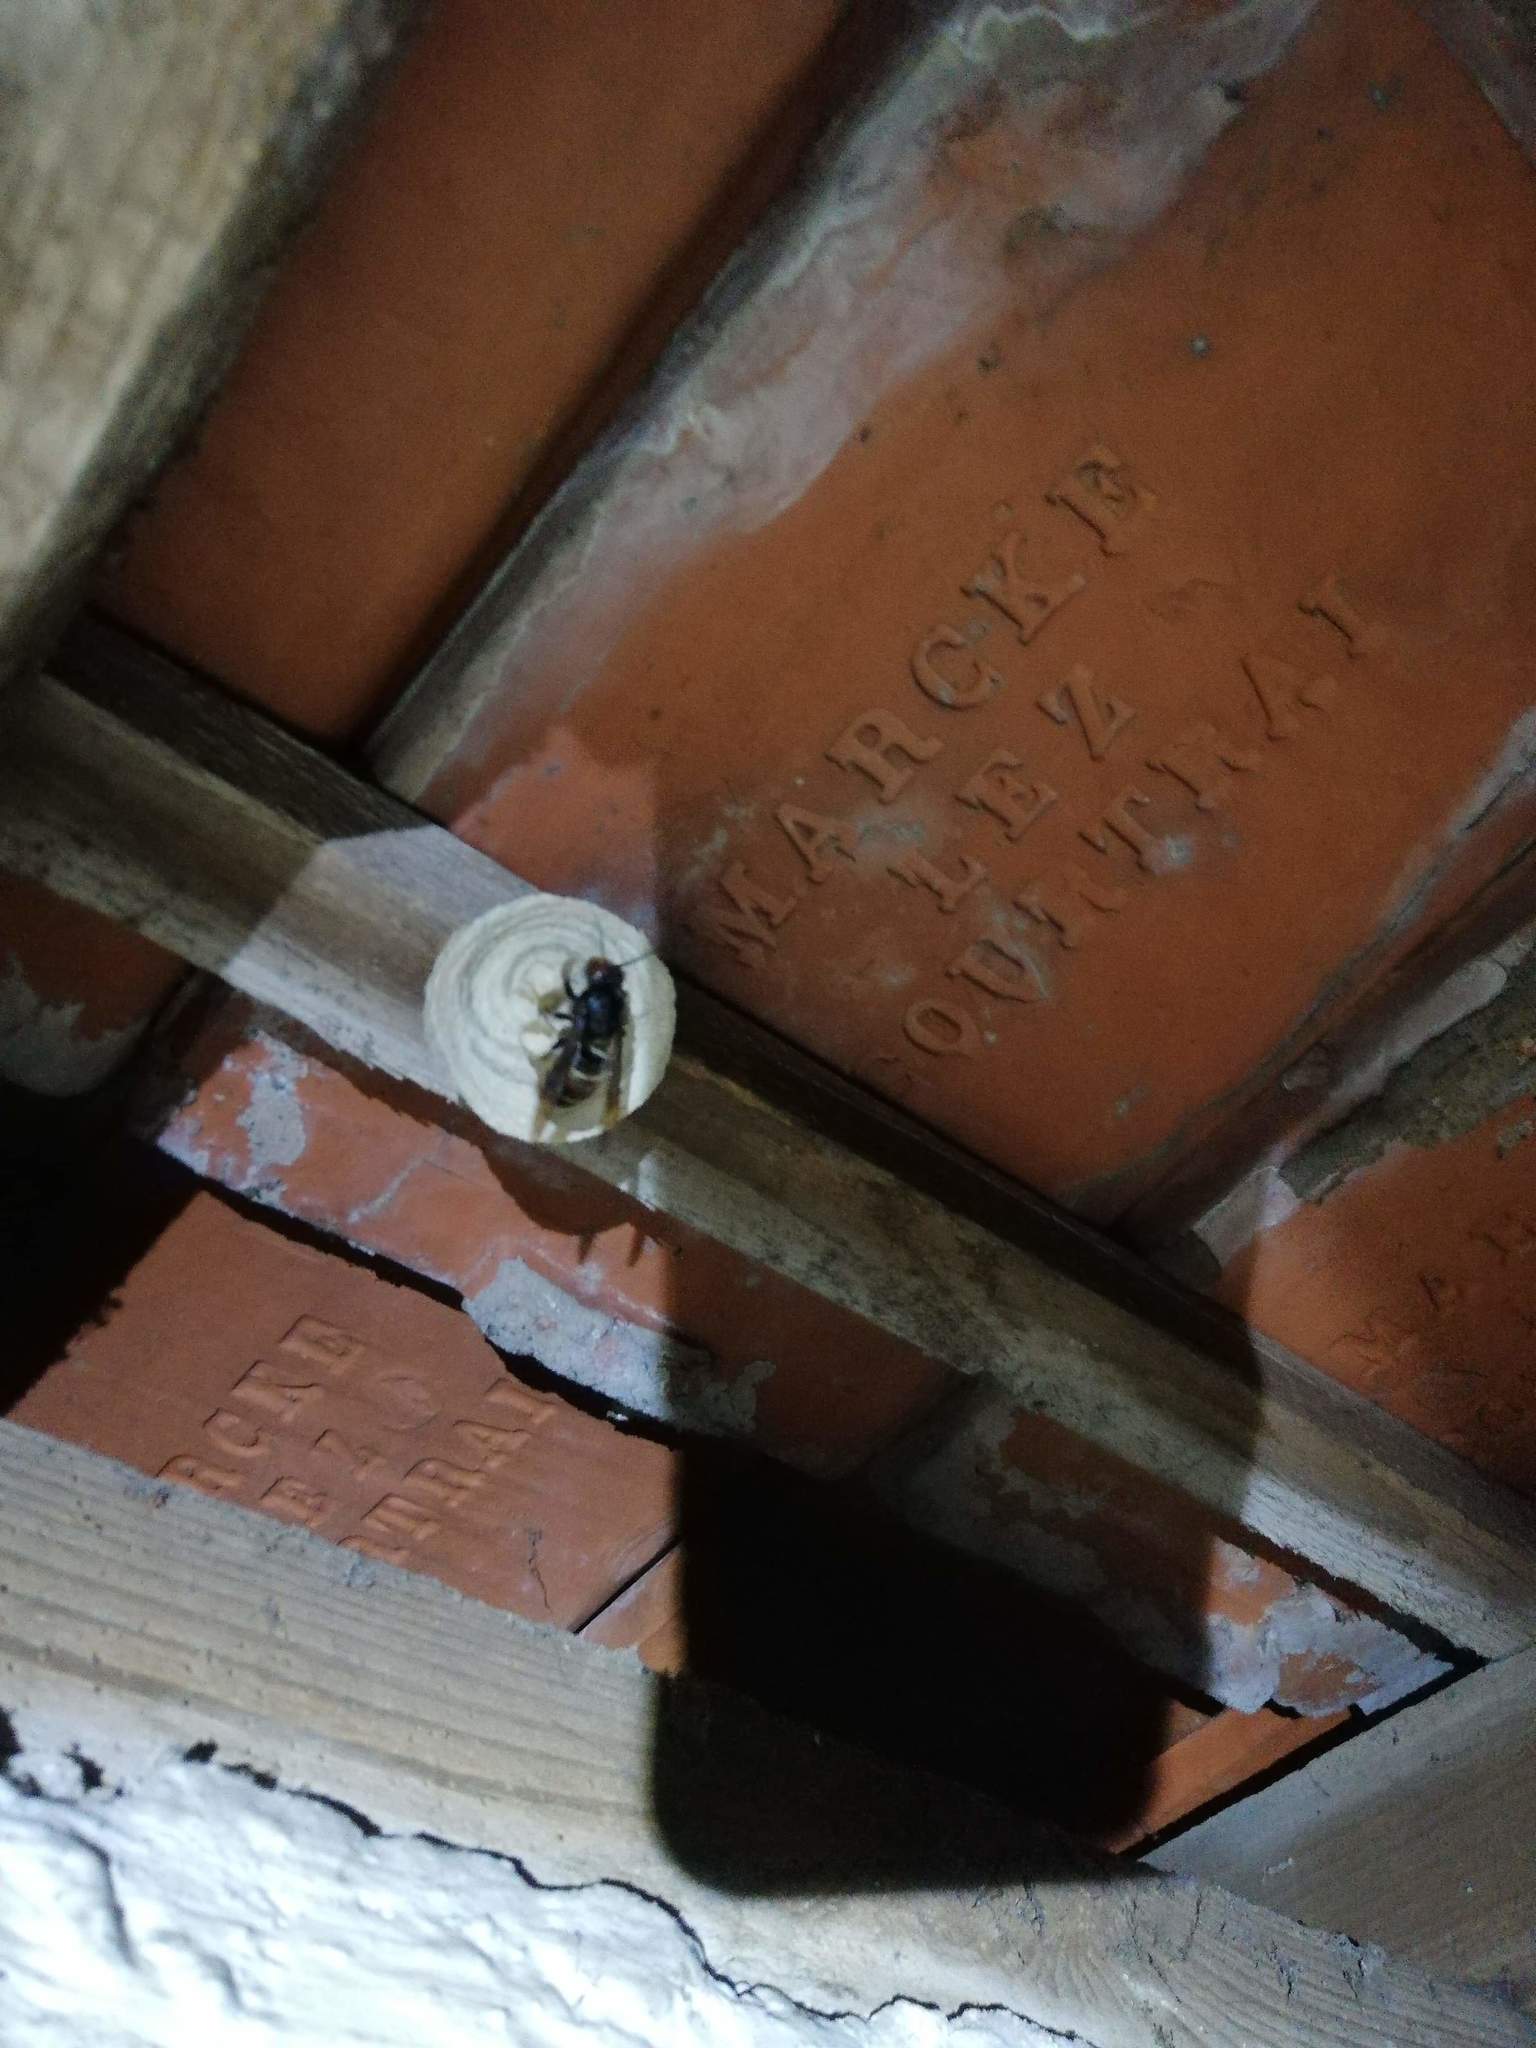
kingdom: Animalia
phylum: Arthropoda
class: Insecta
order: Hymenoptera
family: Vespidae
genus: Vespa
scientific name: Vespa velutina
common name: Asian hornet
